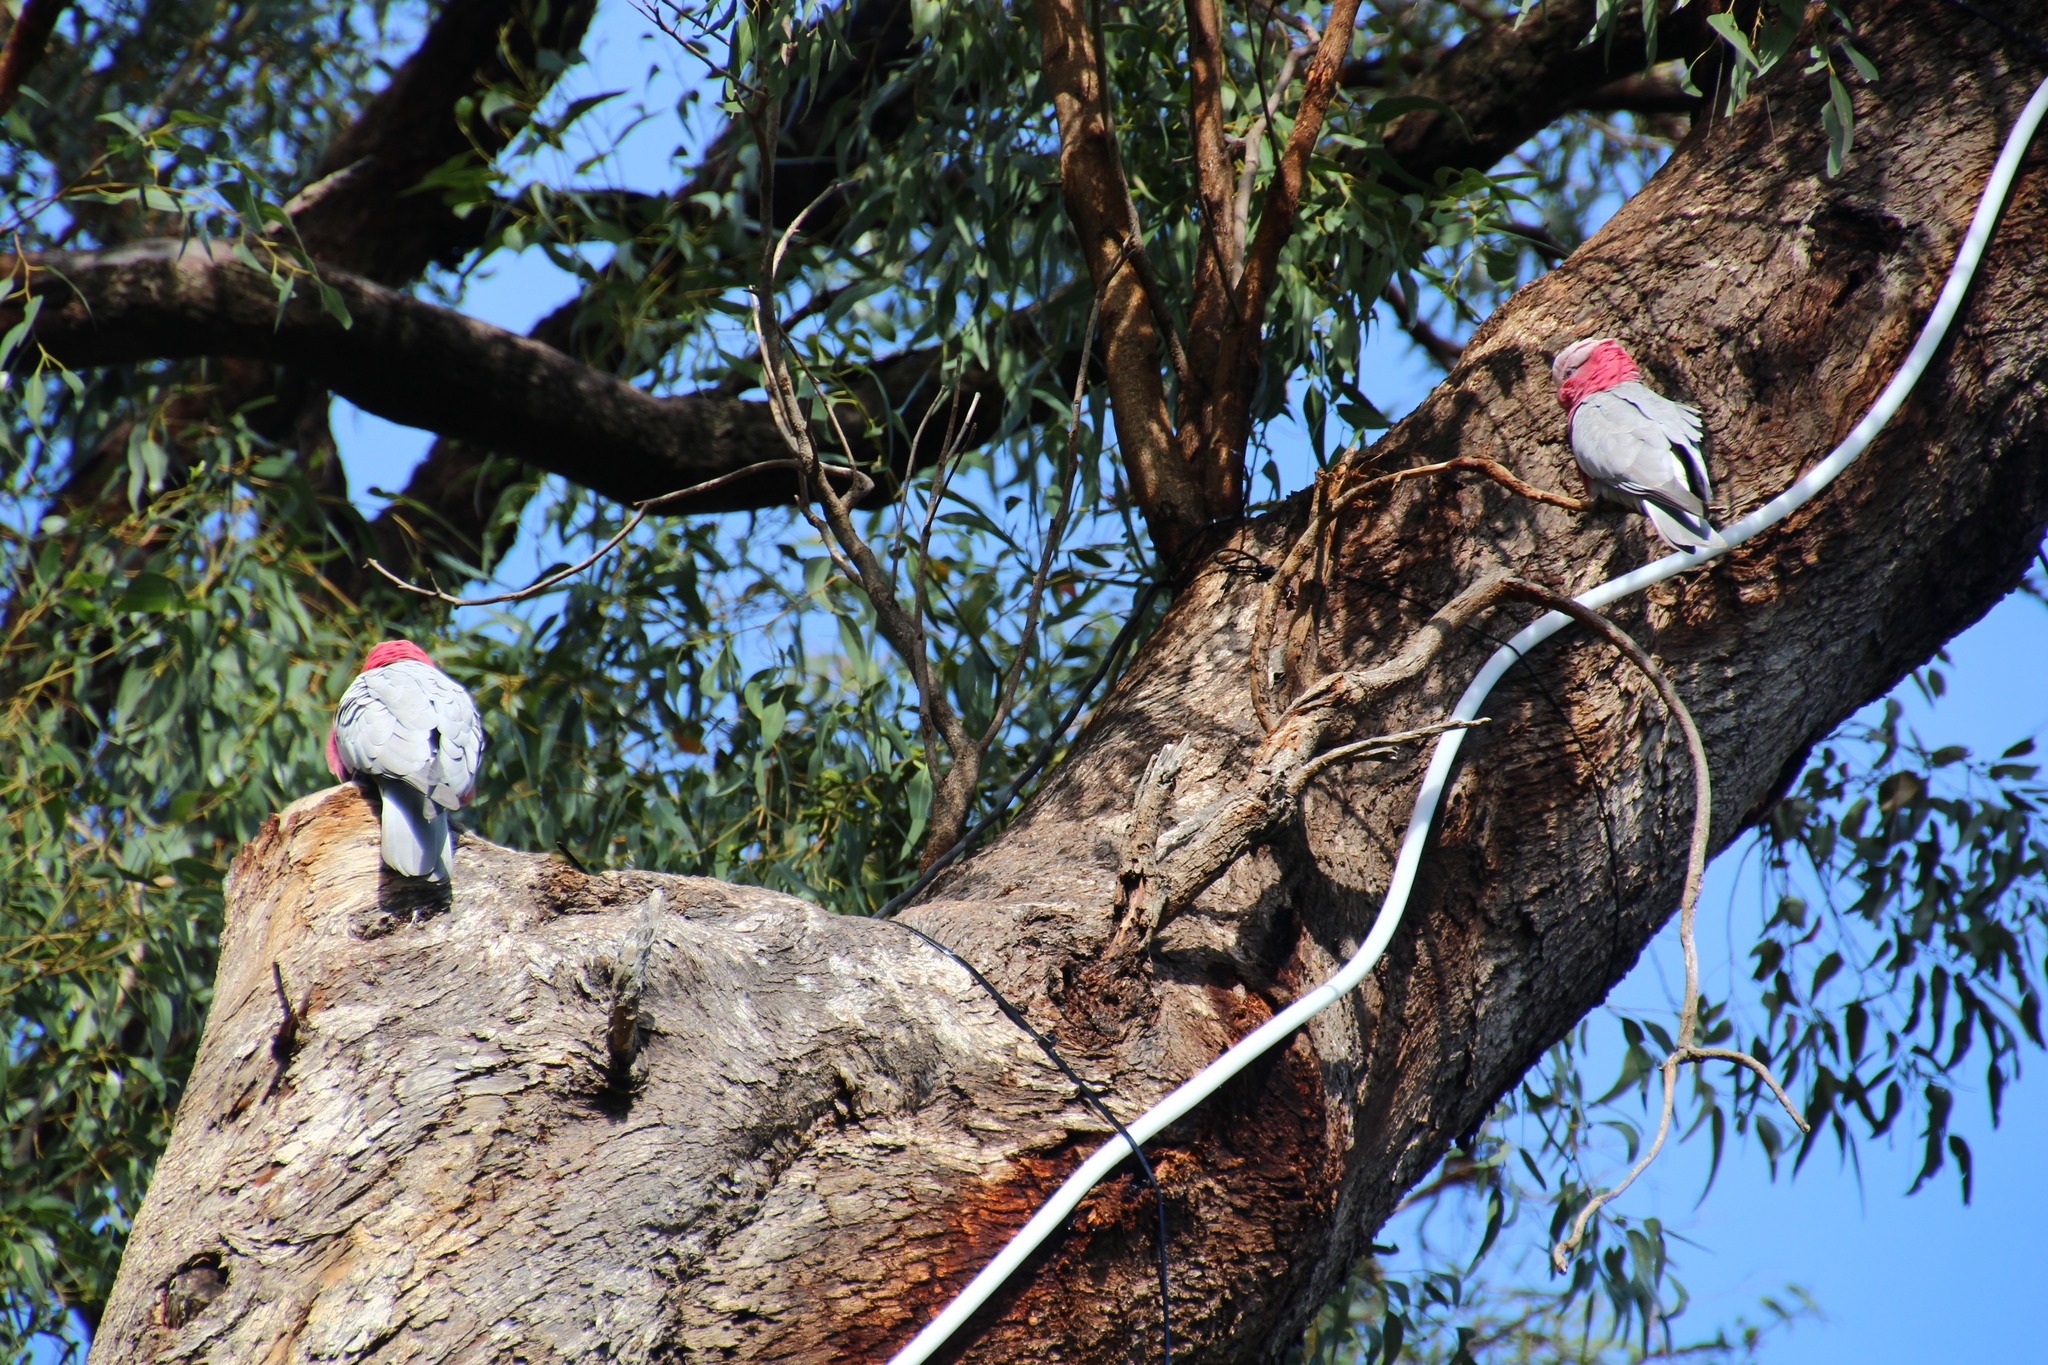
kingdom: Animalia
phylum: Chordata
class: Aves
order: Psittaciformes
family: Psittacidae
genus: Eolophus
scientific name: Eolophus roseicapilla
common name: Galah
